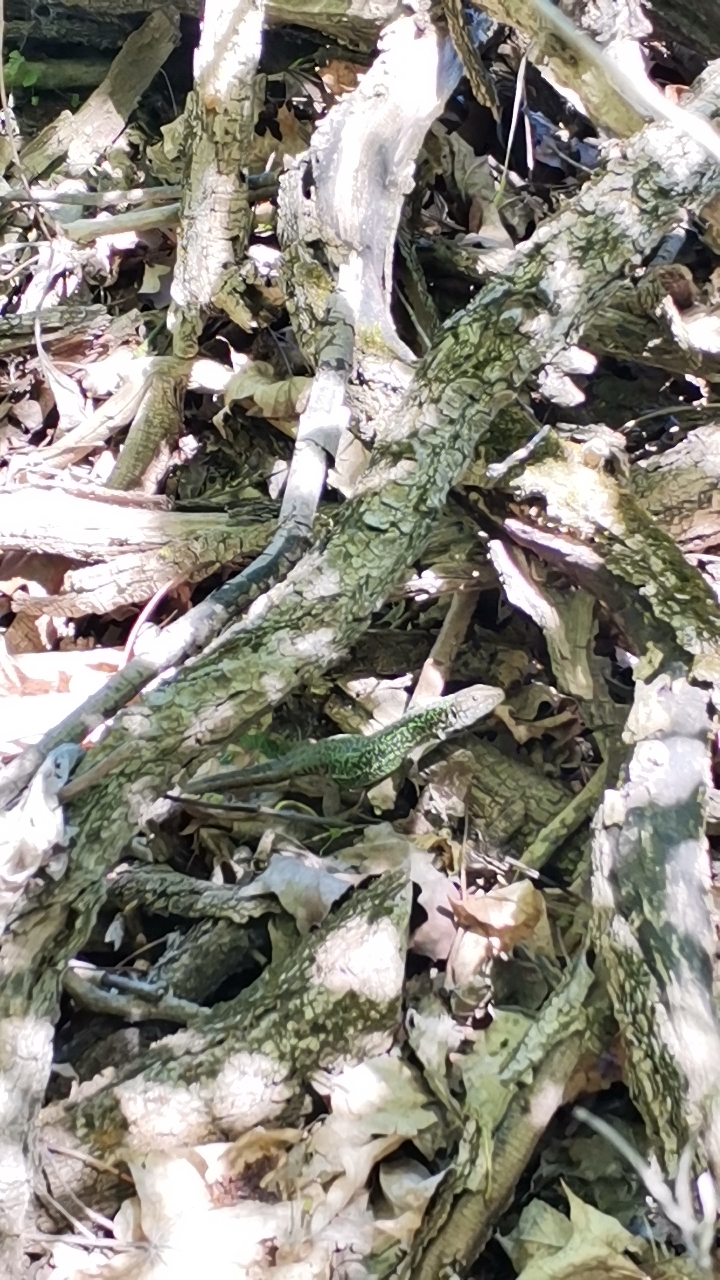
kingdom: Animalia
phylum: Chordata
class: Squamata
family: Lacertidae
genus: Lacerta
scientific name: Lacerta viridis
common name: European green lizard
